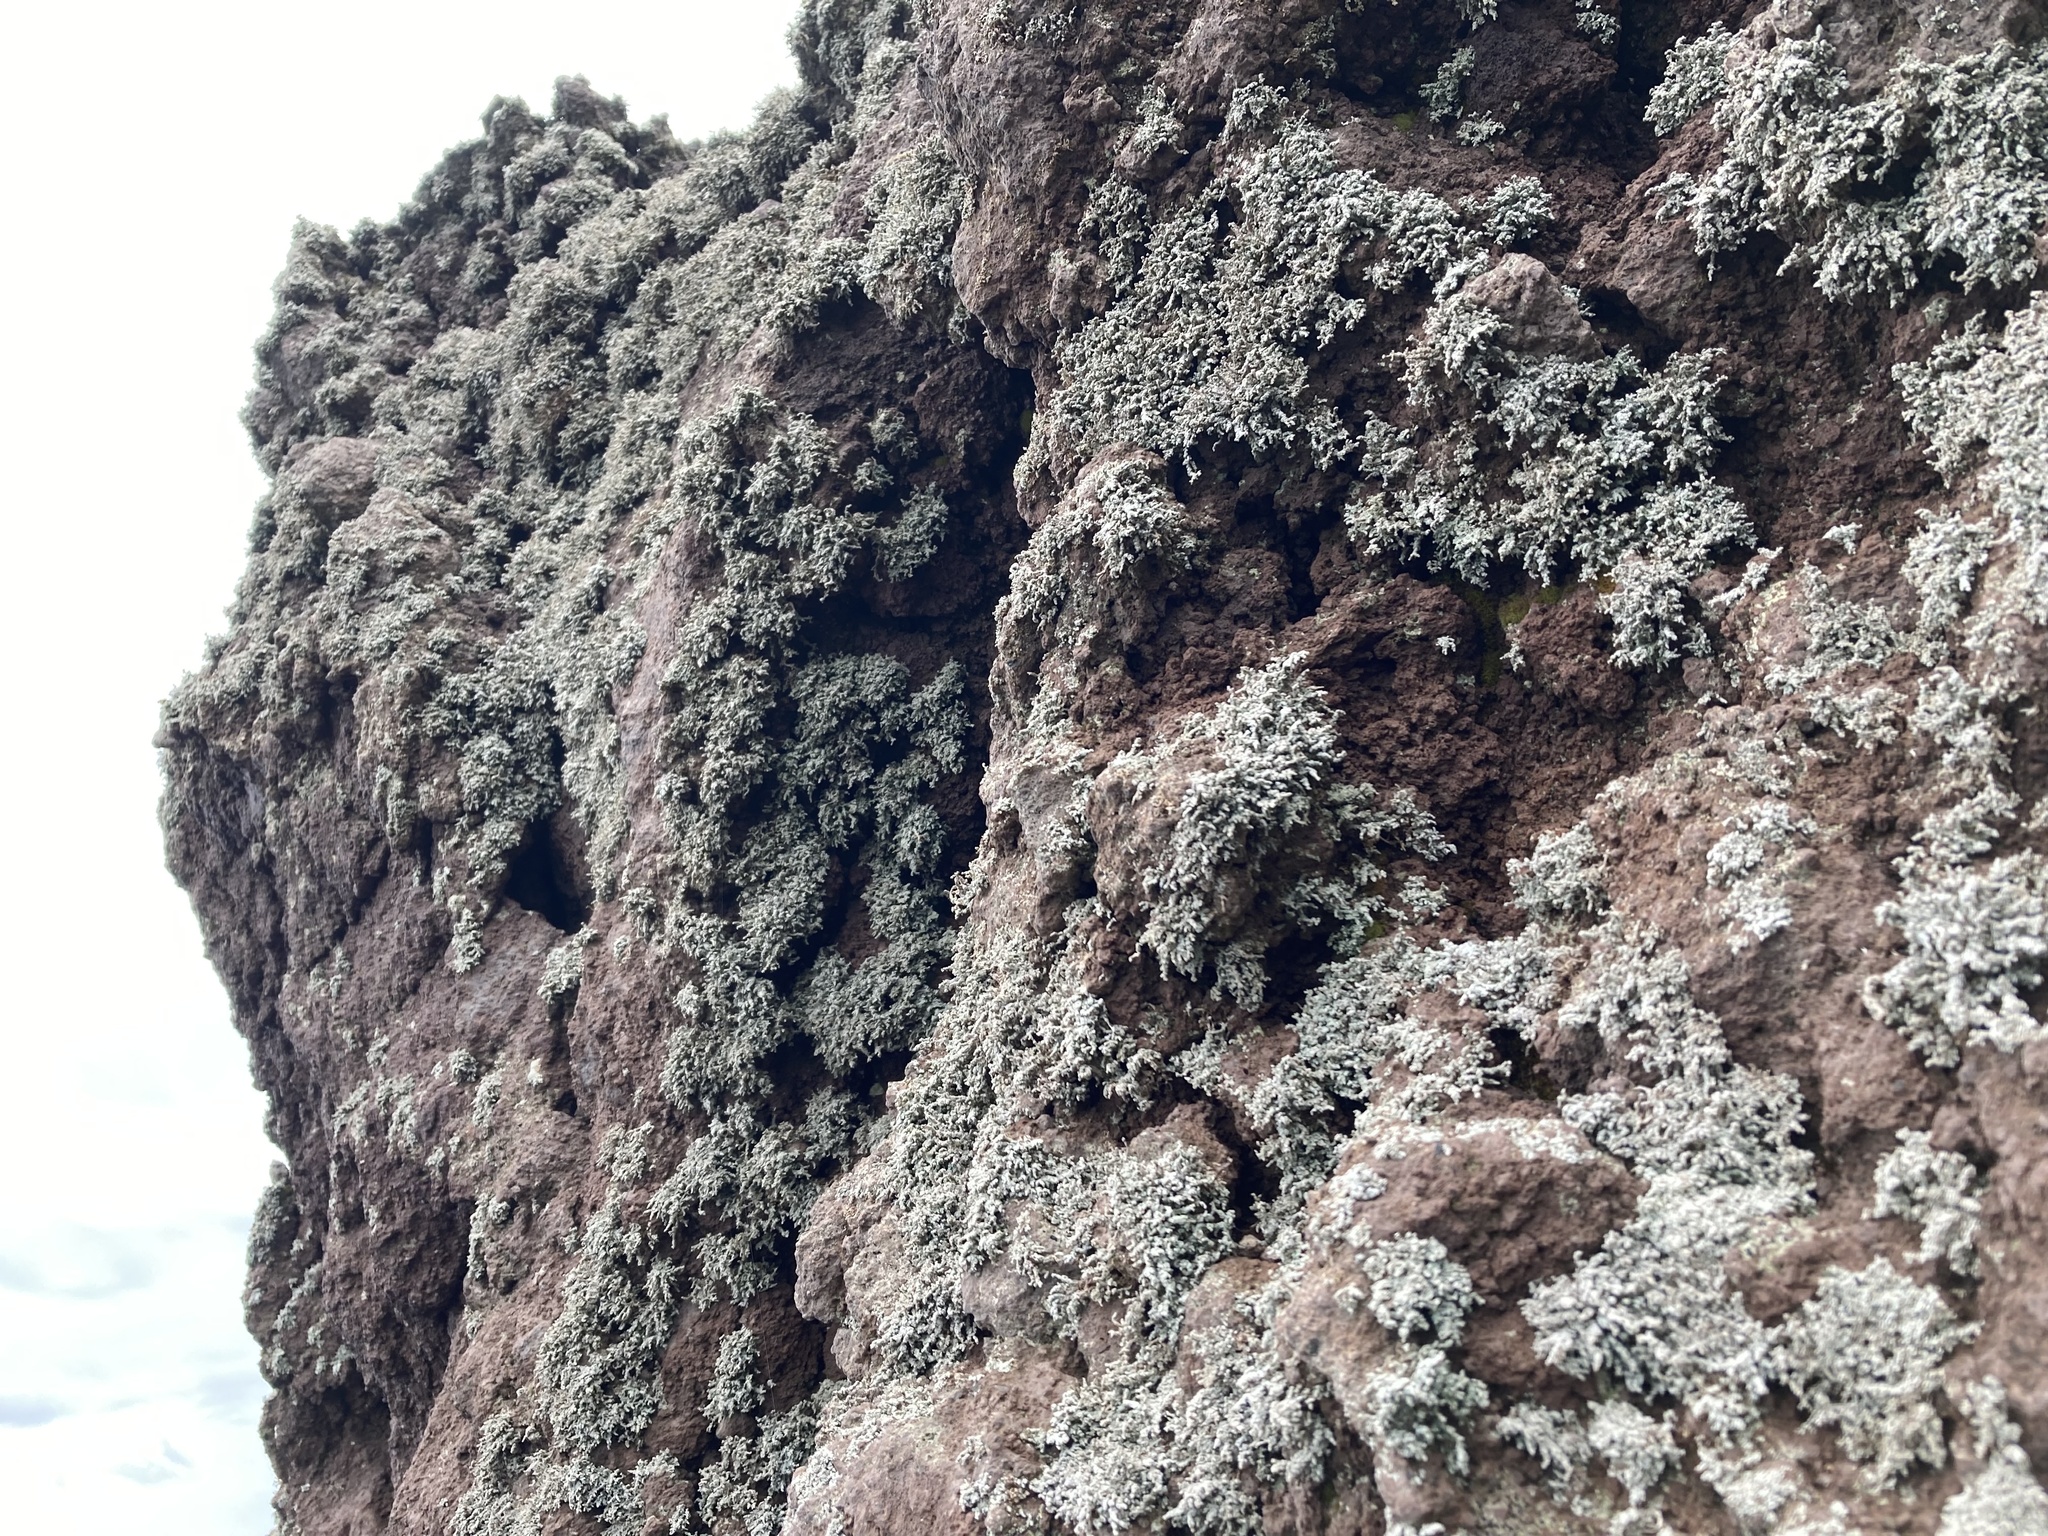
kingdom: Fungi
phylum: Ascomycota
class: Lecanoromycetes
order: Lecanorales
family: Stereocaulaceae
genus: Stereocaulon
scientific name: Stereocaulon vesuvianum
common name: Variegated foam lichen
